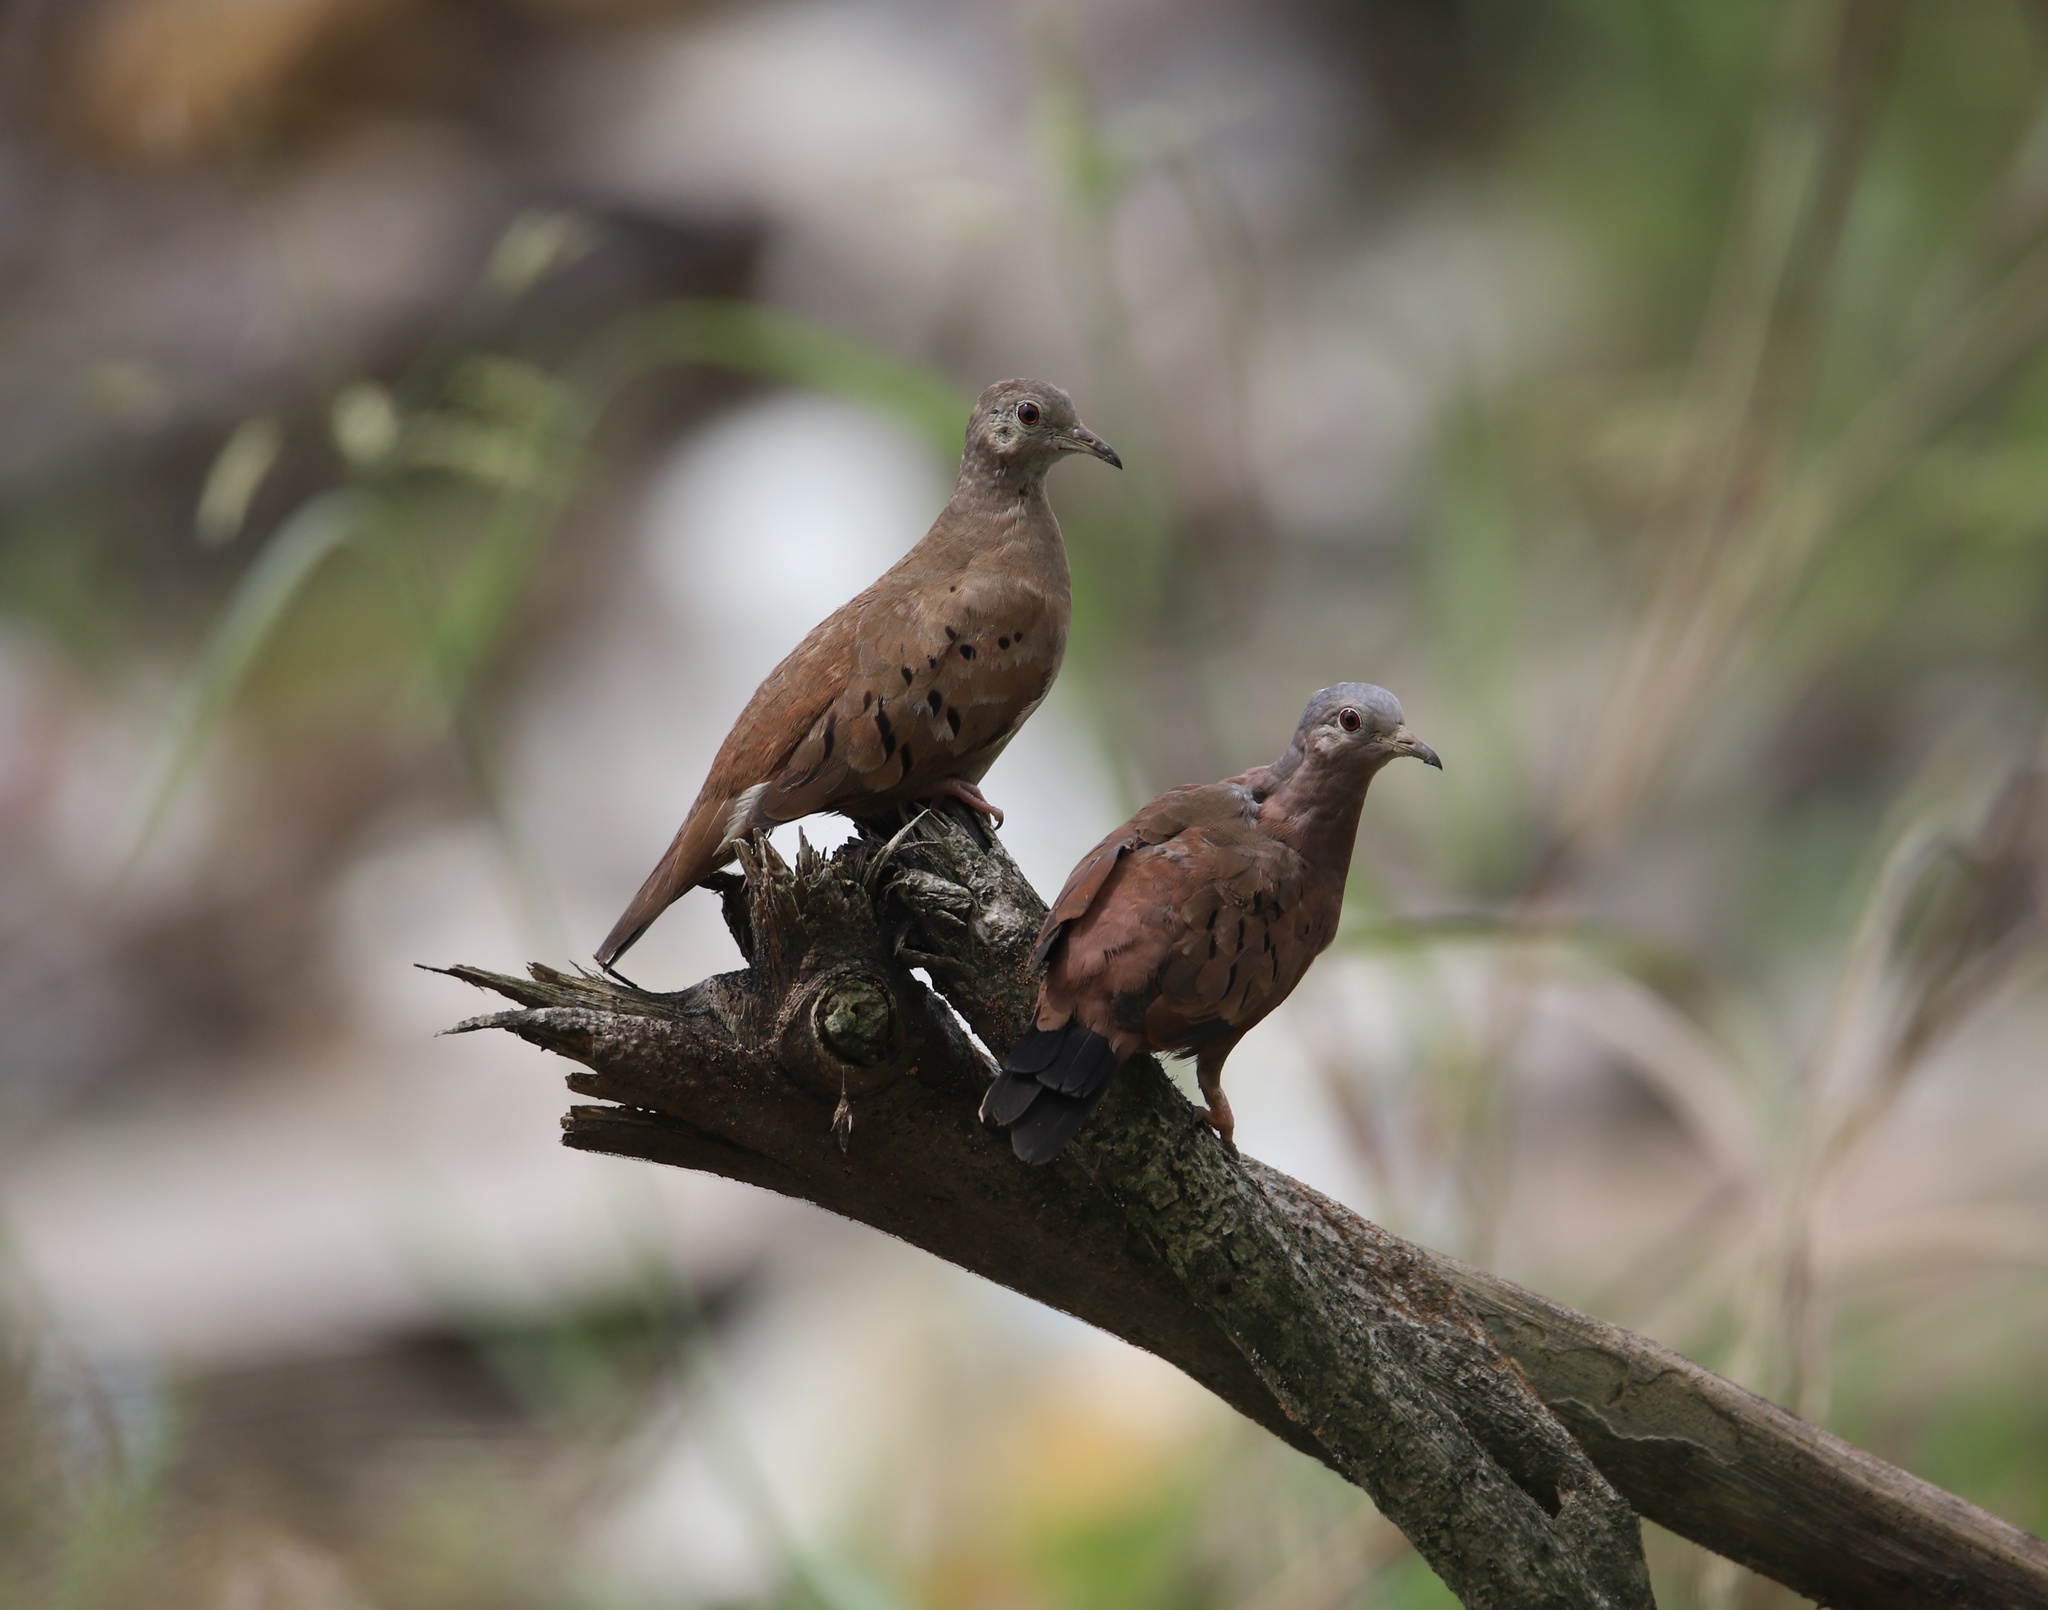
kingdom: Animalia
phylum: Chordata
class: Aves
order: Columbiformes
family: Columbidae
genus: Columbina
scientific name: Columbina talpacoti
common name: Ruddy ground dove
